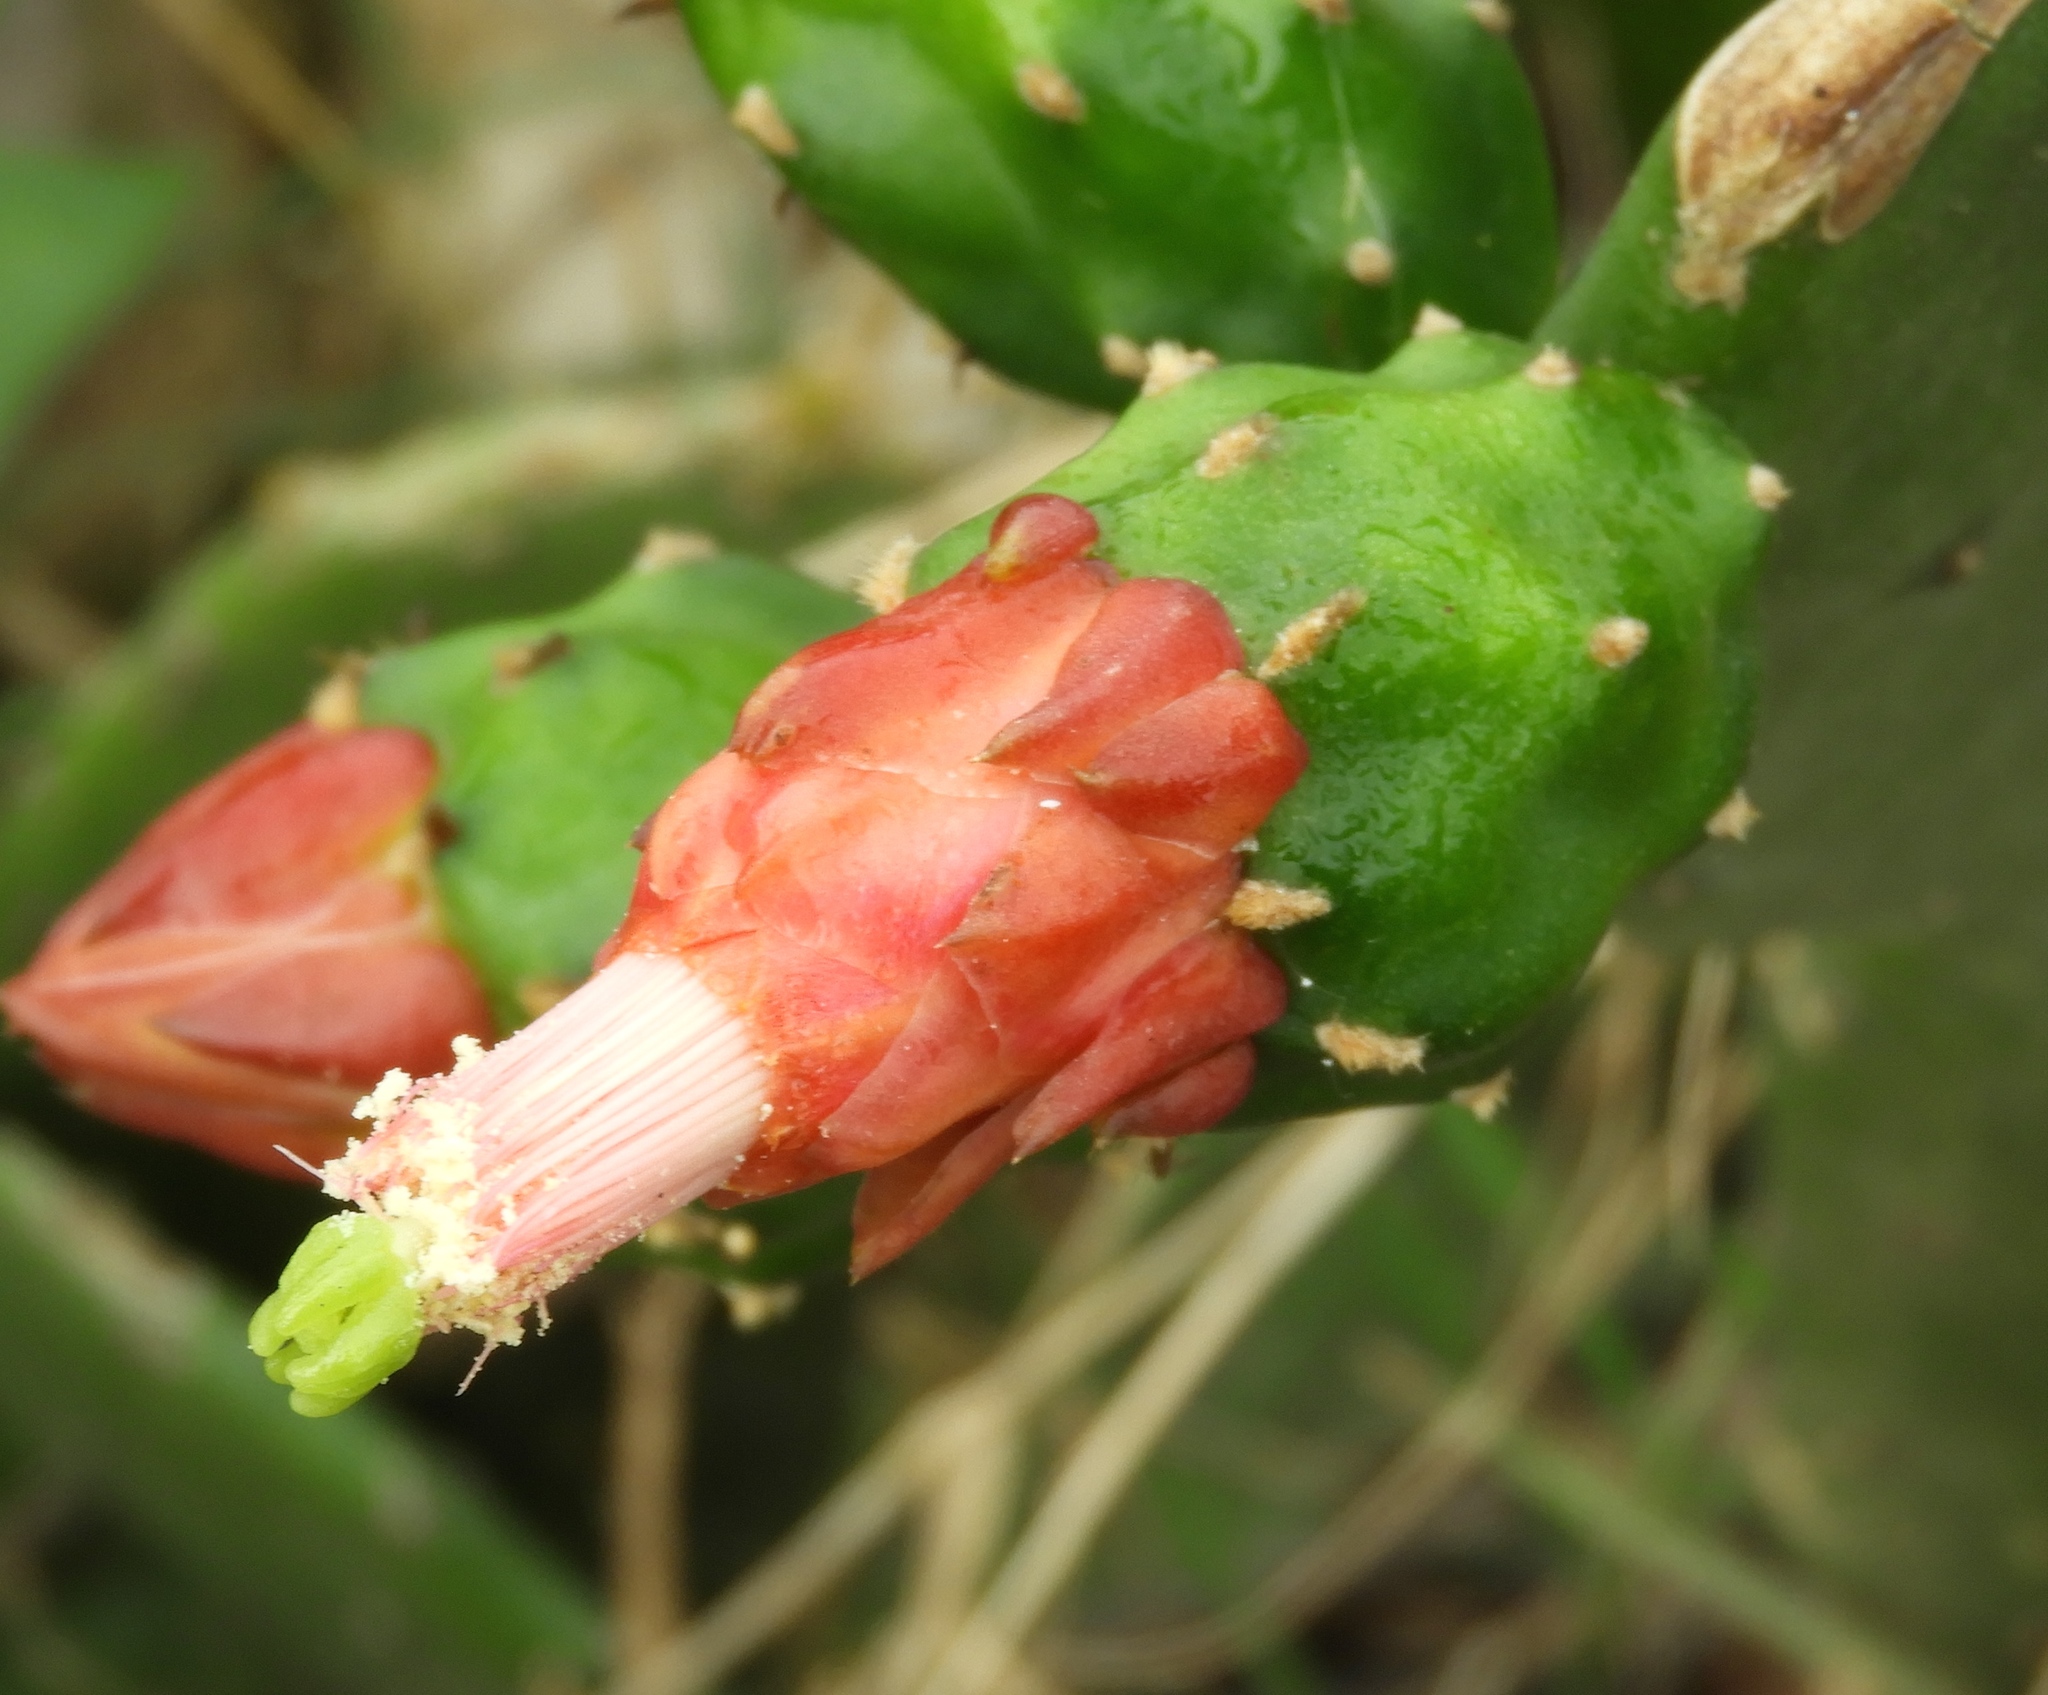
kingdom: Plantae
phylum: Tracheophyta
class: Magnoliopsida
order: Caryophyllales
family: Cactaceae
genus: Opuntia
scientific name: Opuntia cochenillifera
